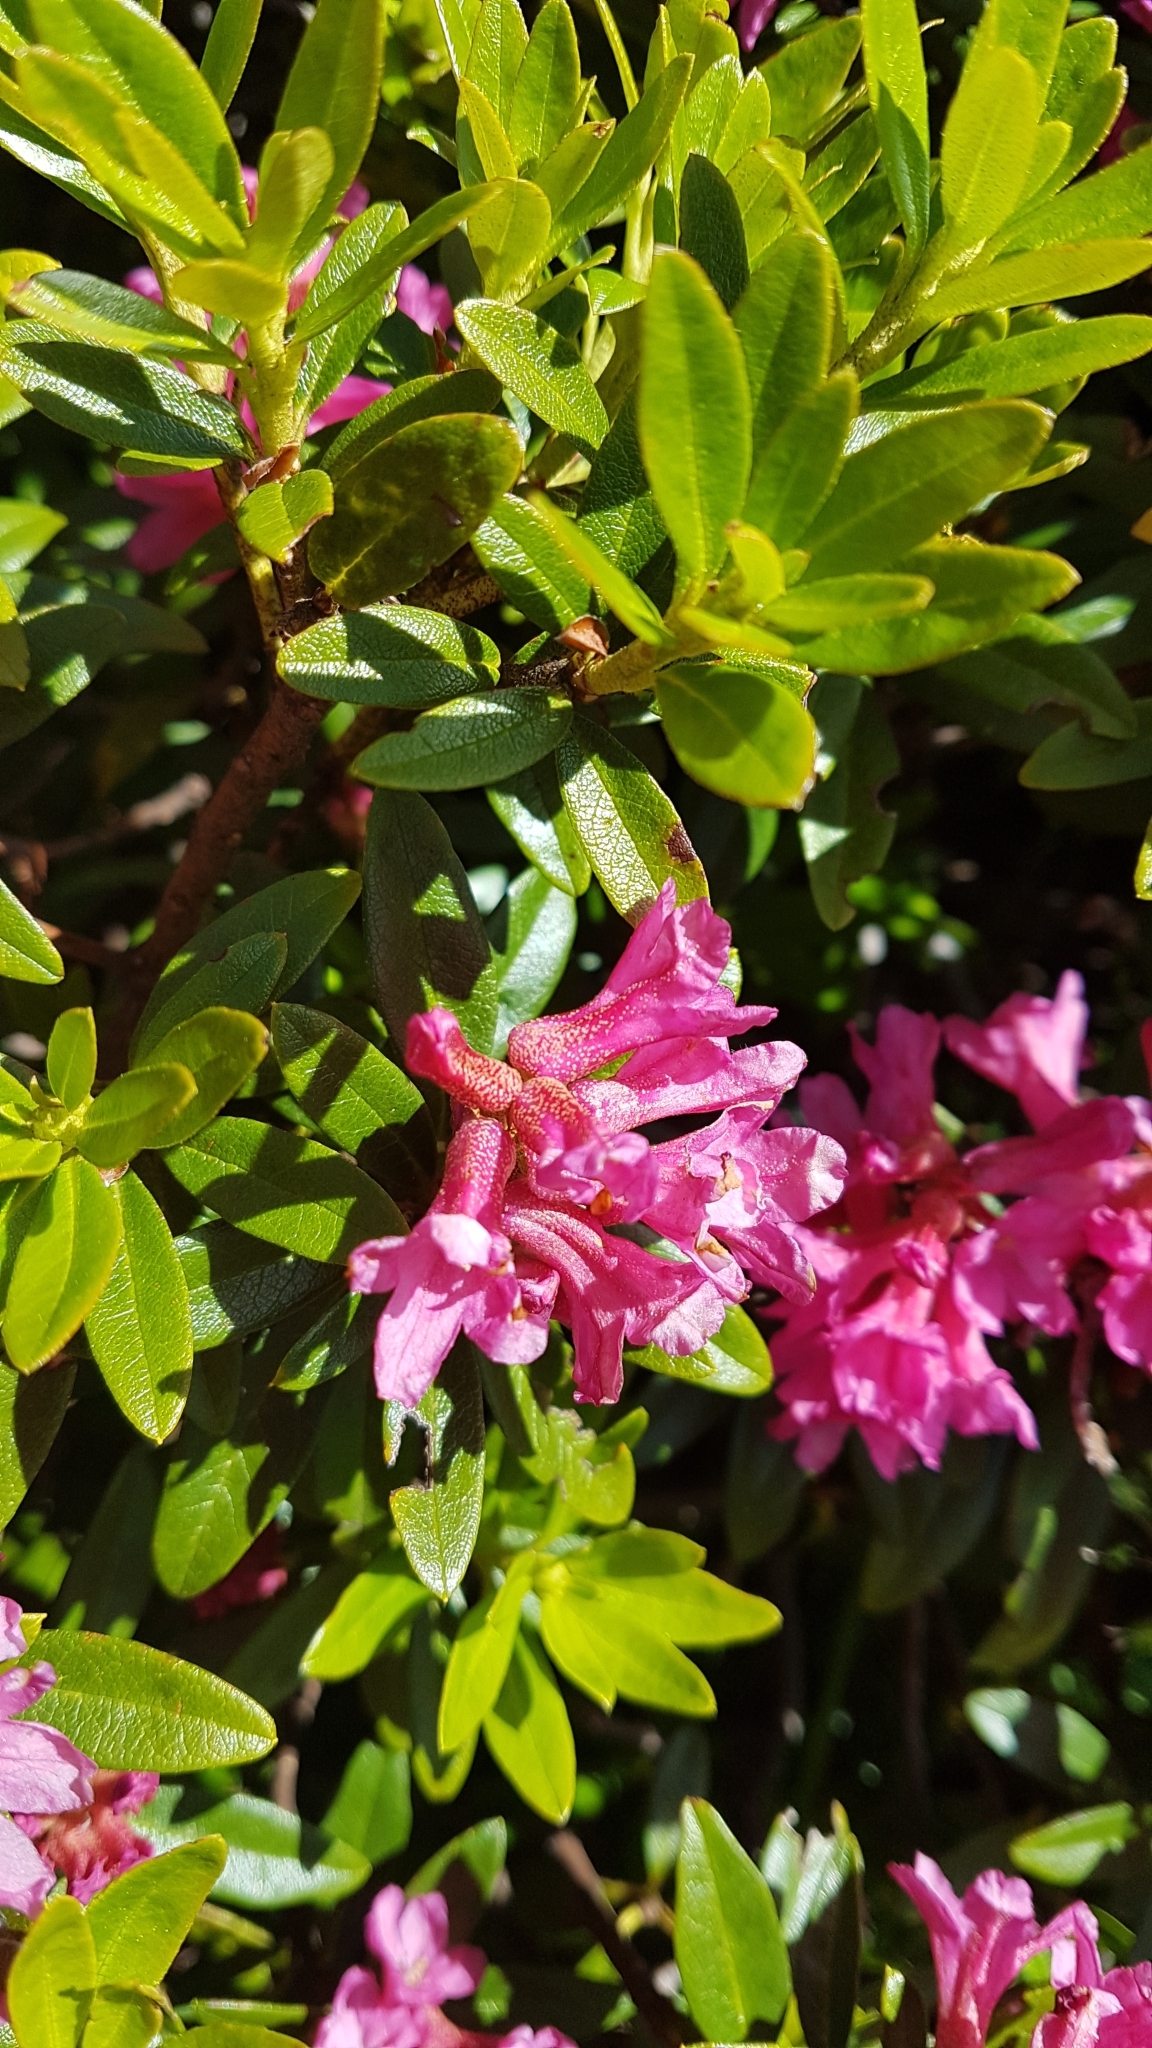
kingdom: Plantae
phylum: Tracheophyta
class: Magnoliopsida
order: Ericales
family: Ericaceae
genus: Rhododendron
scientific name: Rhododendron ferrugineum
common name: Alpenrose
